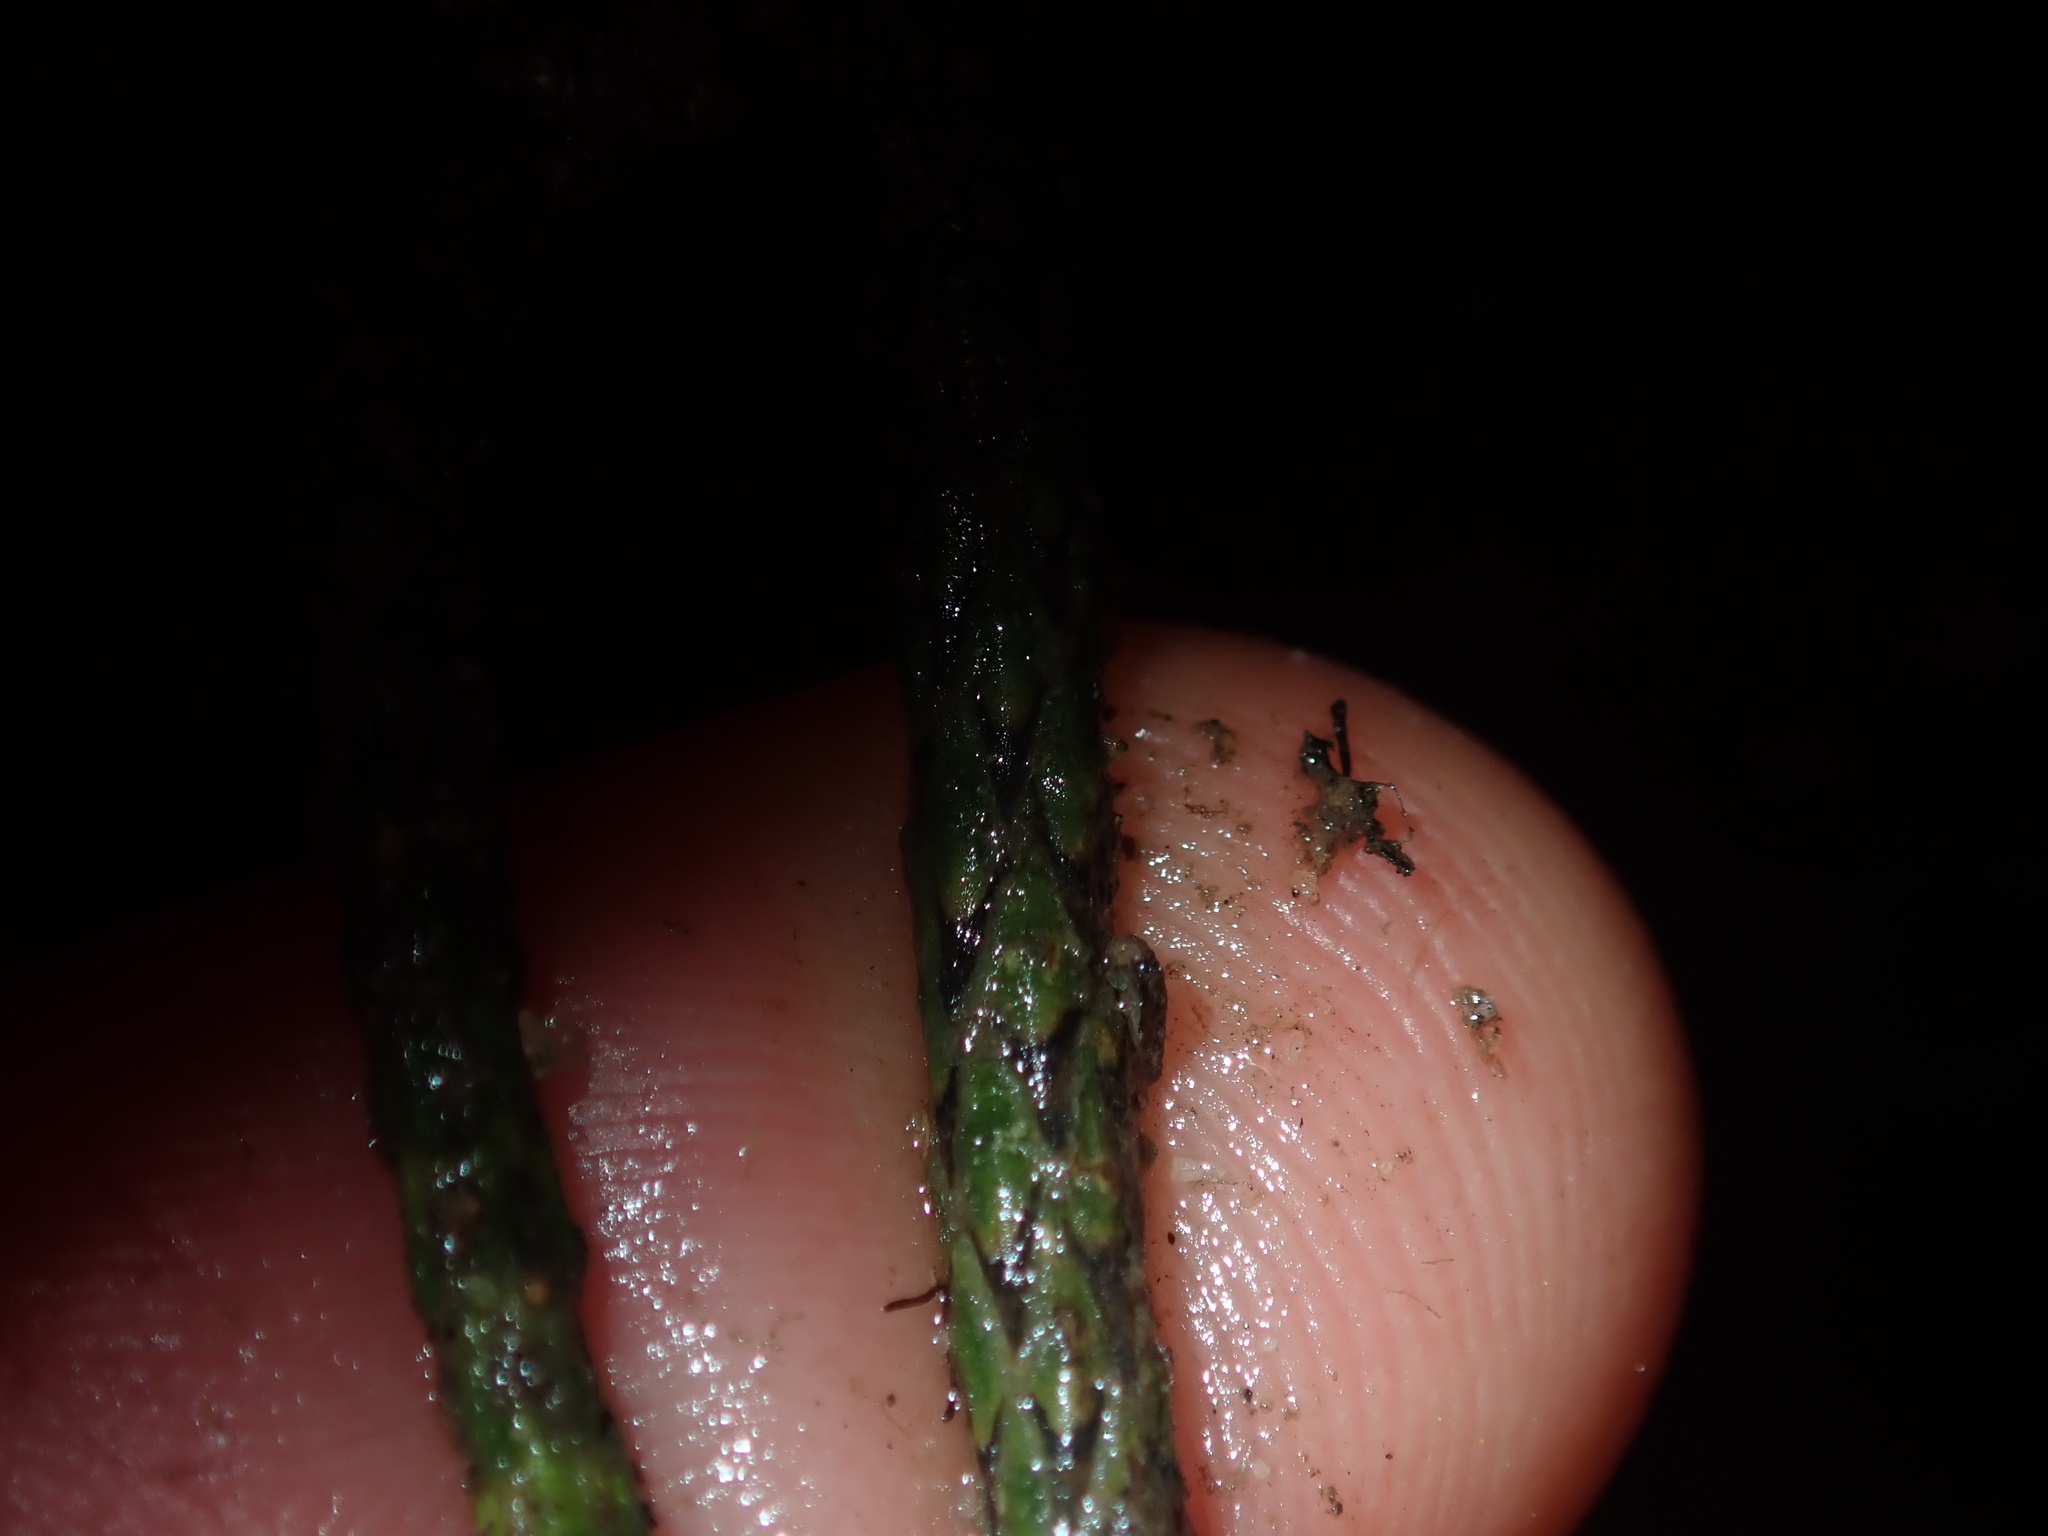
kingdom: Plantae
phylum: Tracheophyta
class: Lycopodiopsida
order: Lycopodiales
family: Lycopodiaceae
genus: Pseudolycopodium
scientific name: Pseudolycopodium densum
